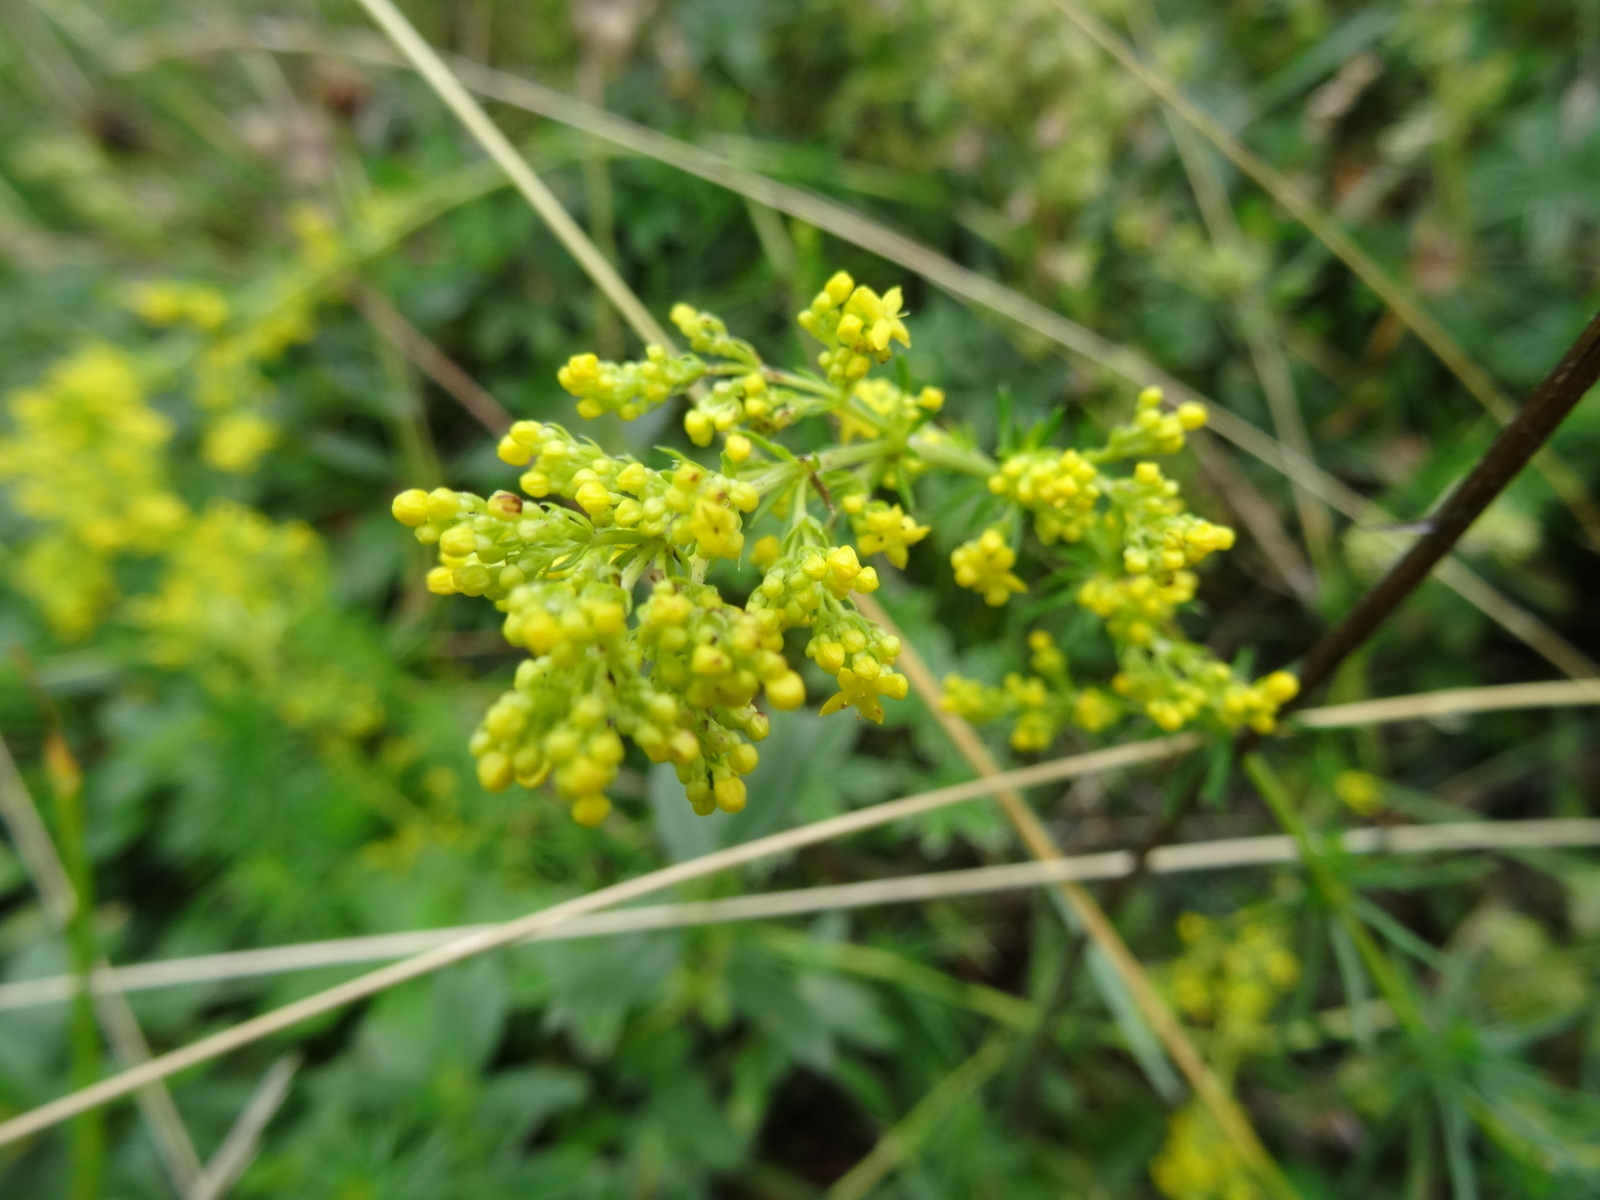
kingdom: Plantae
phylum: Tracheophyta
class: Magnoliopsida
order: Gentianales
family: Rubiaceae
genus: Galium
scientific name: Galium verum
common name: Lady's bedstraw
